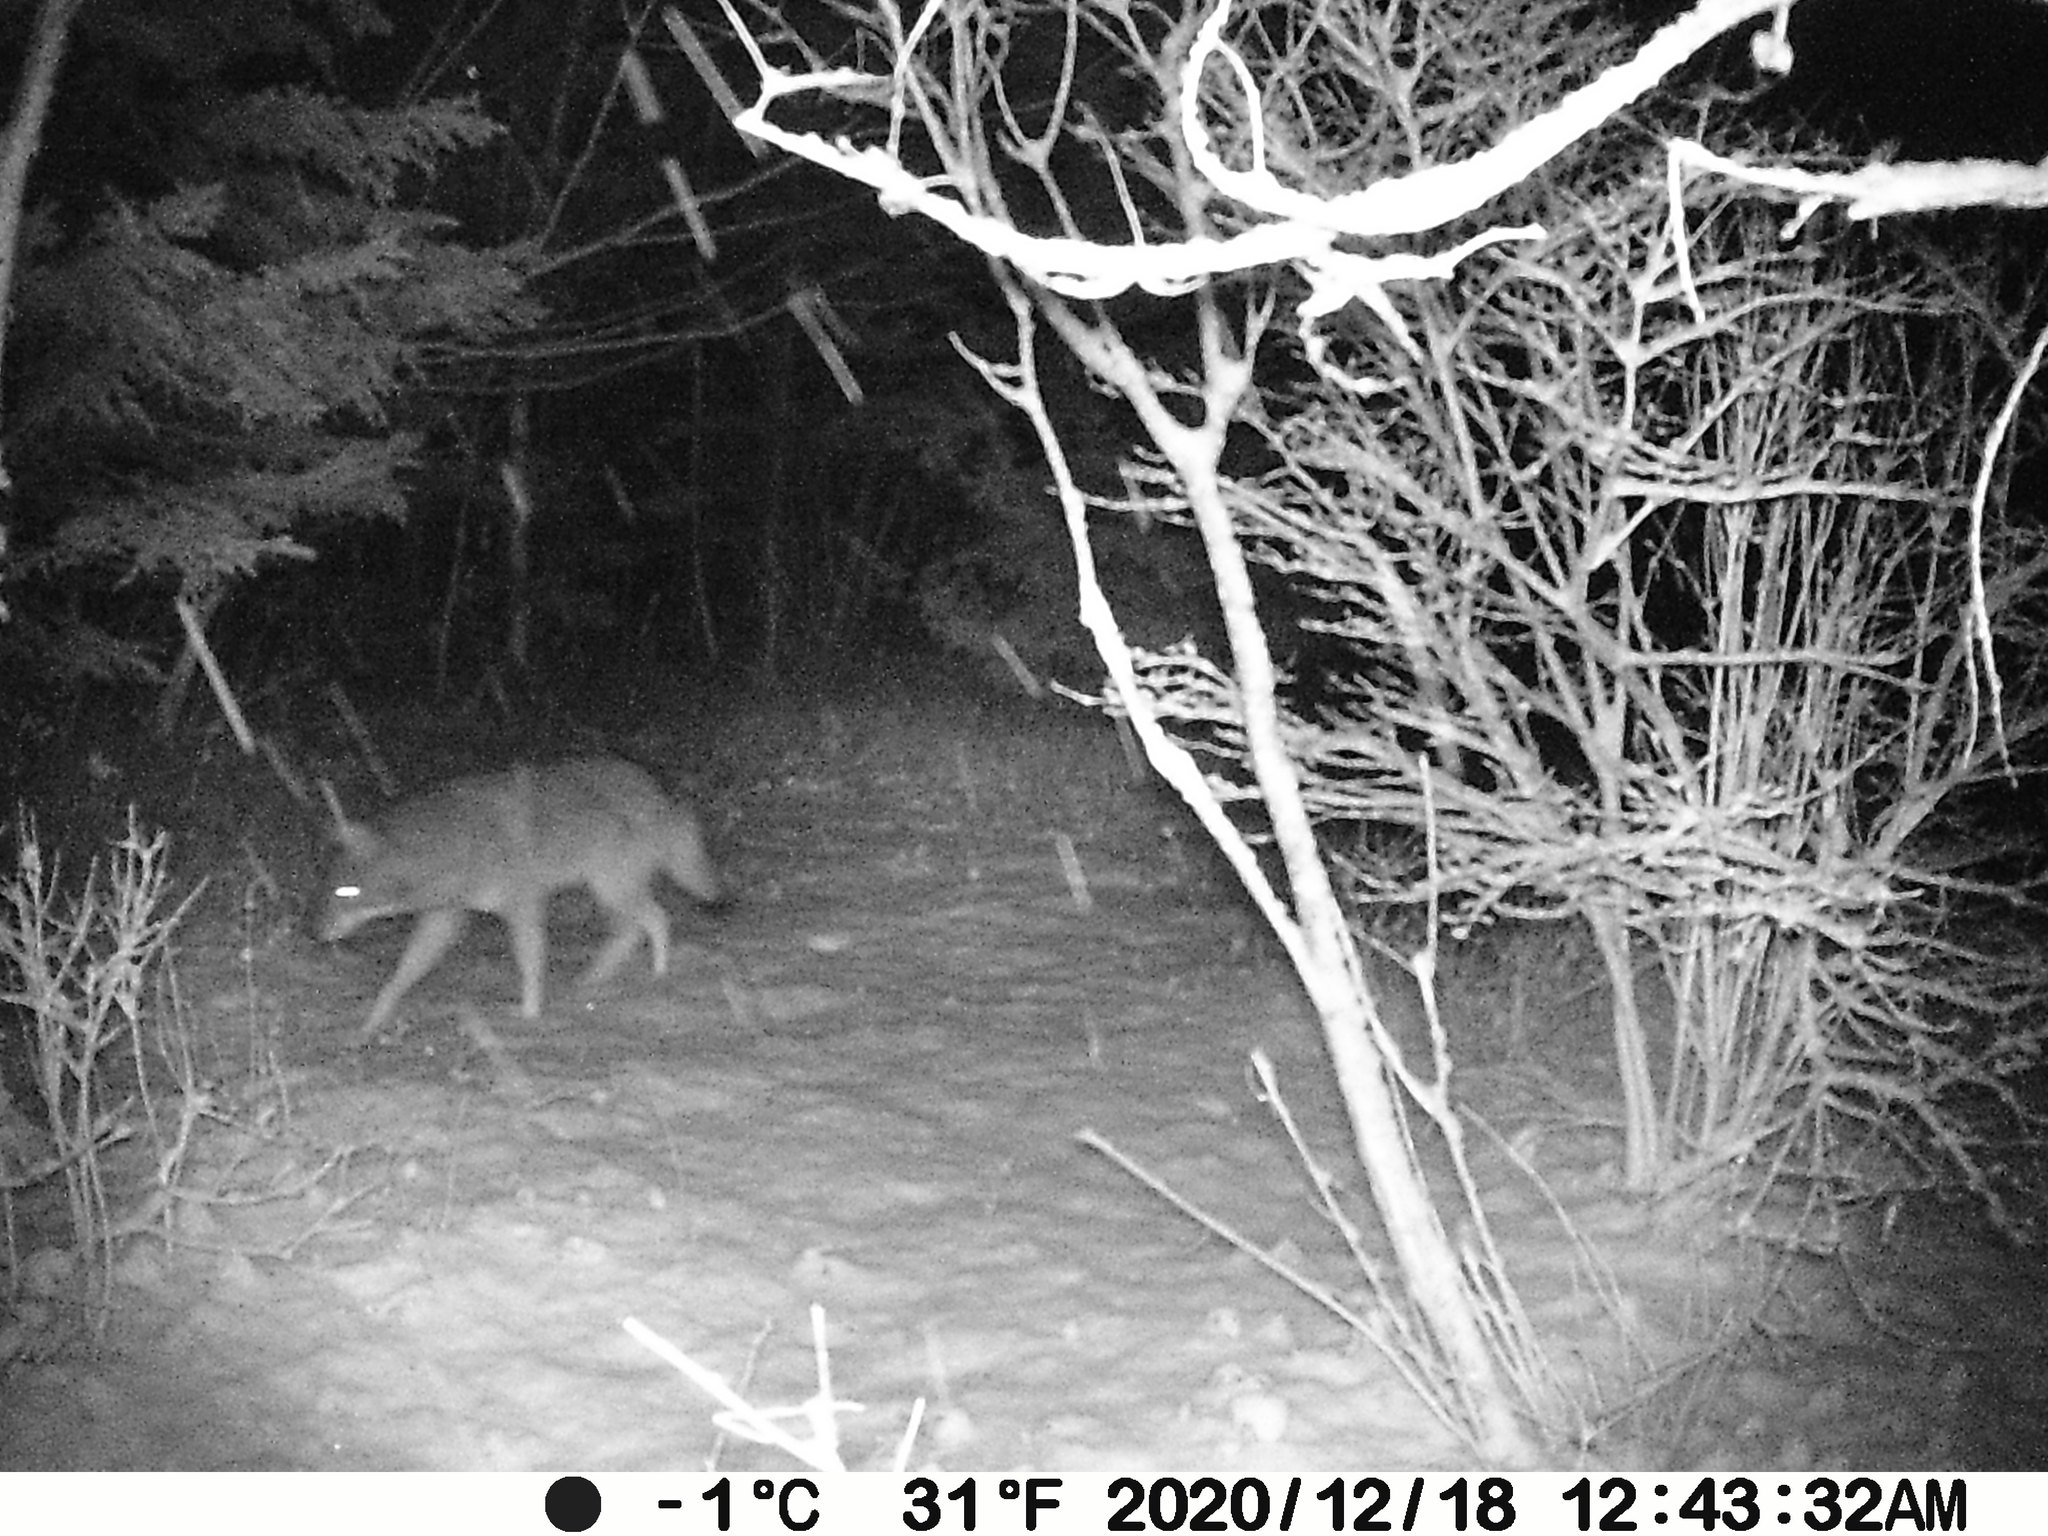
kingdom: Animalia
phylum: Chordata
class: Mammalia
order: Carnivora
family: Canidae
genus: Canis
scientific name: Canis latrans
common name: Coyote
